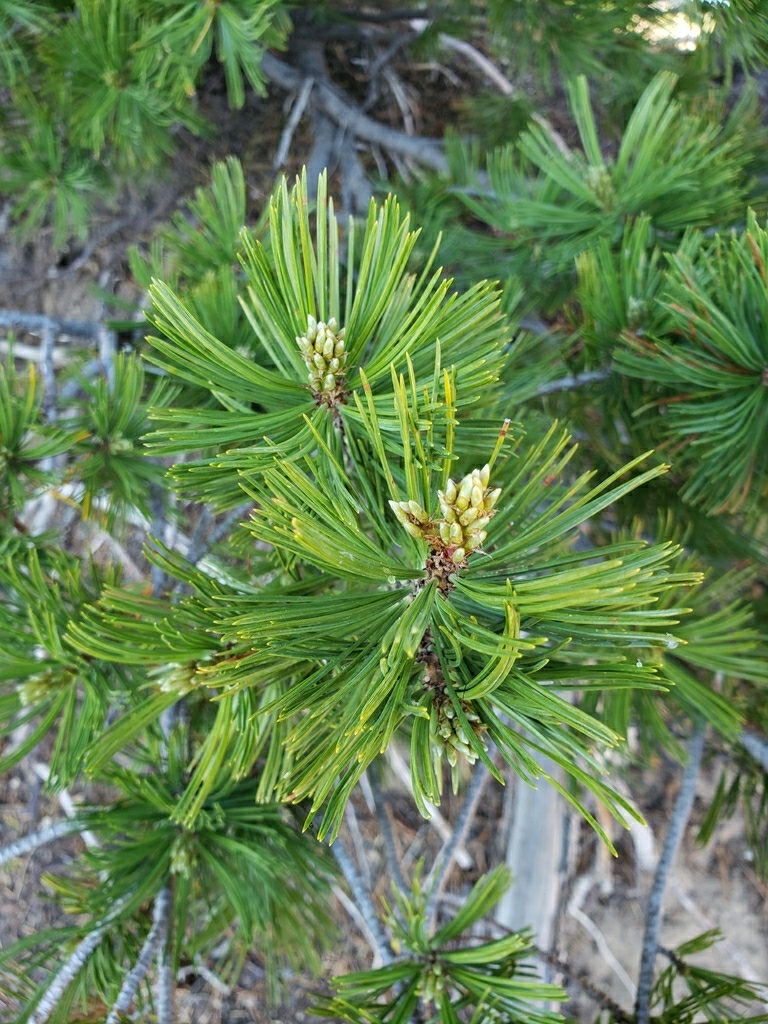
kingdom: Plantae
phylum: Tracheophyta
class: Pinopsida
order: Pinales
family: Pinaceae
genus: Pinus
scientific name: Pinus albicaulis
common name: Whitebark pine
